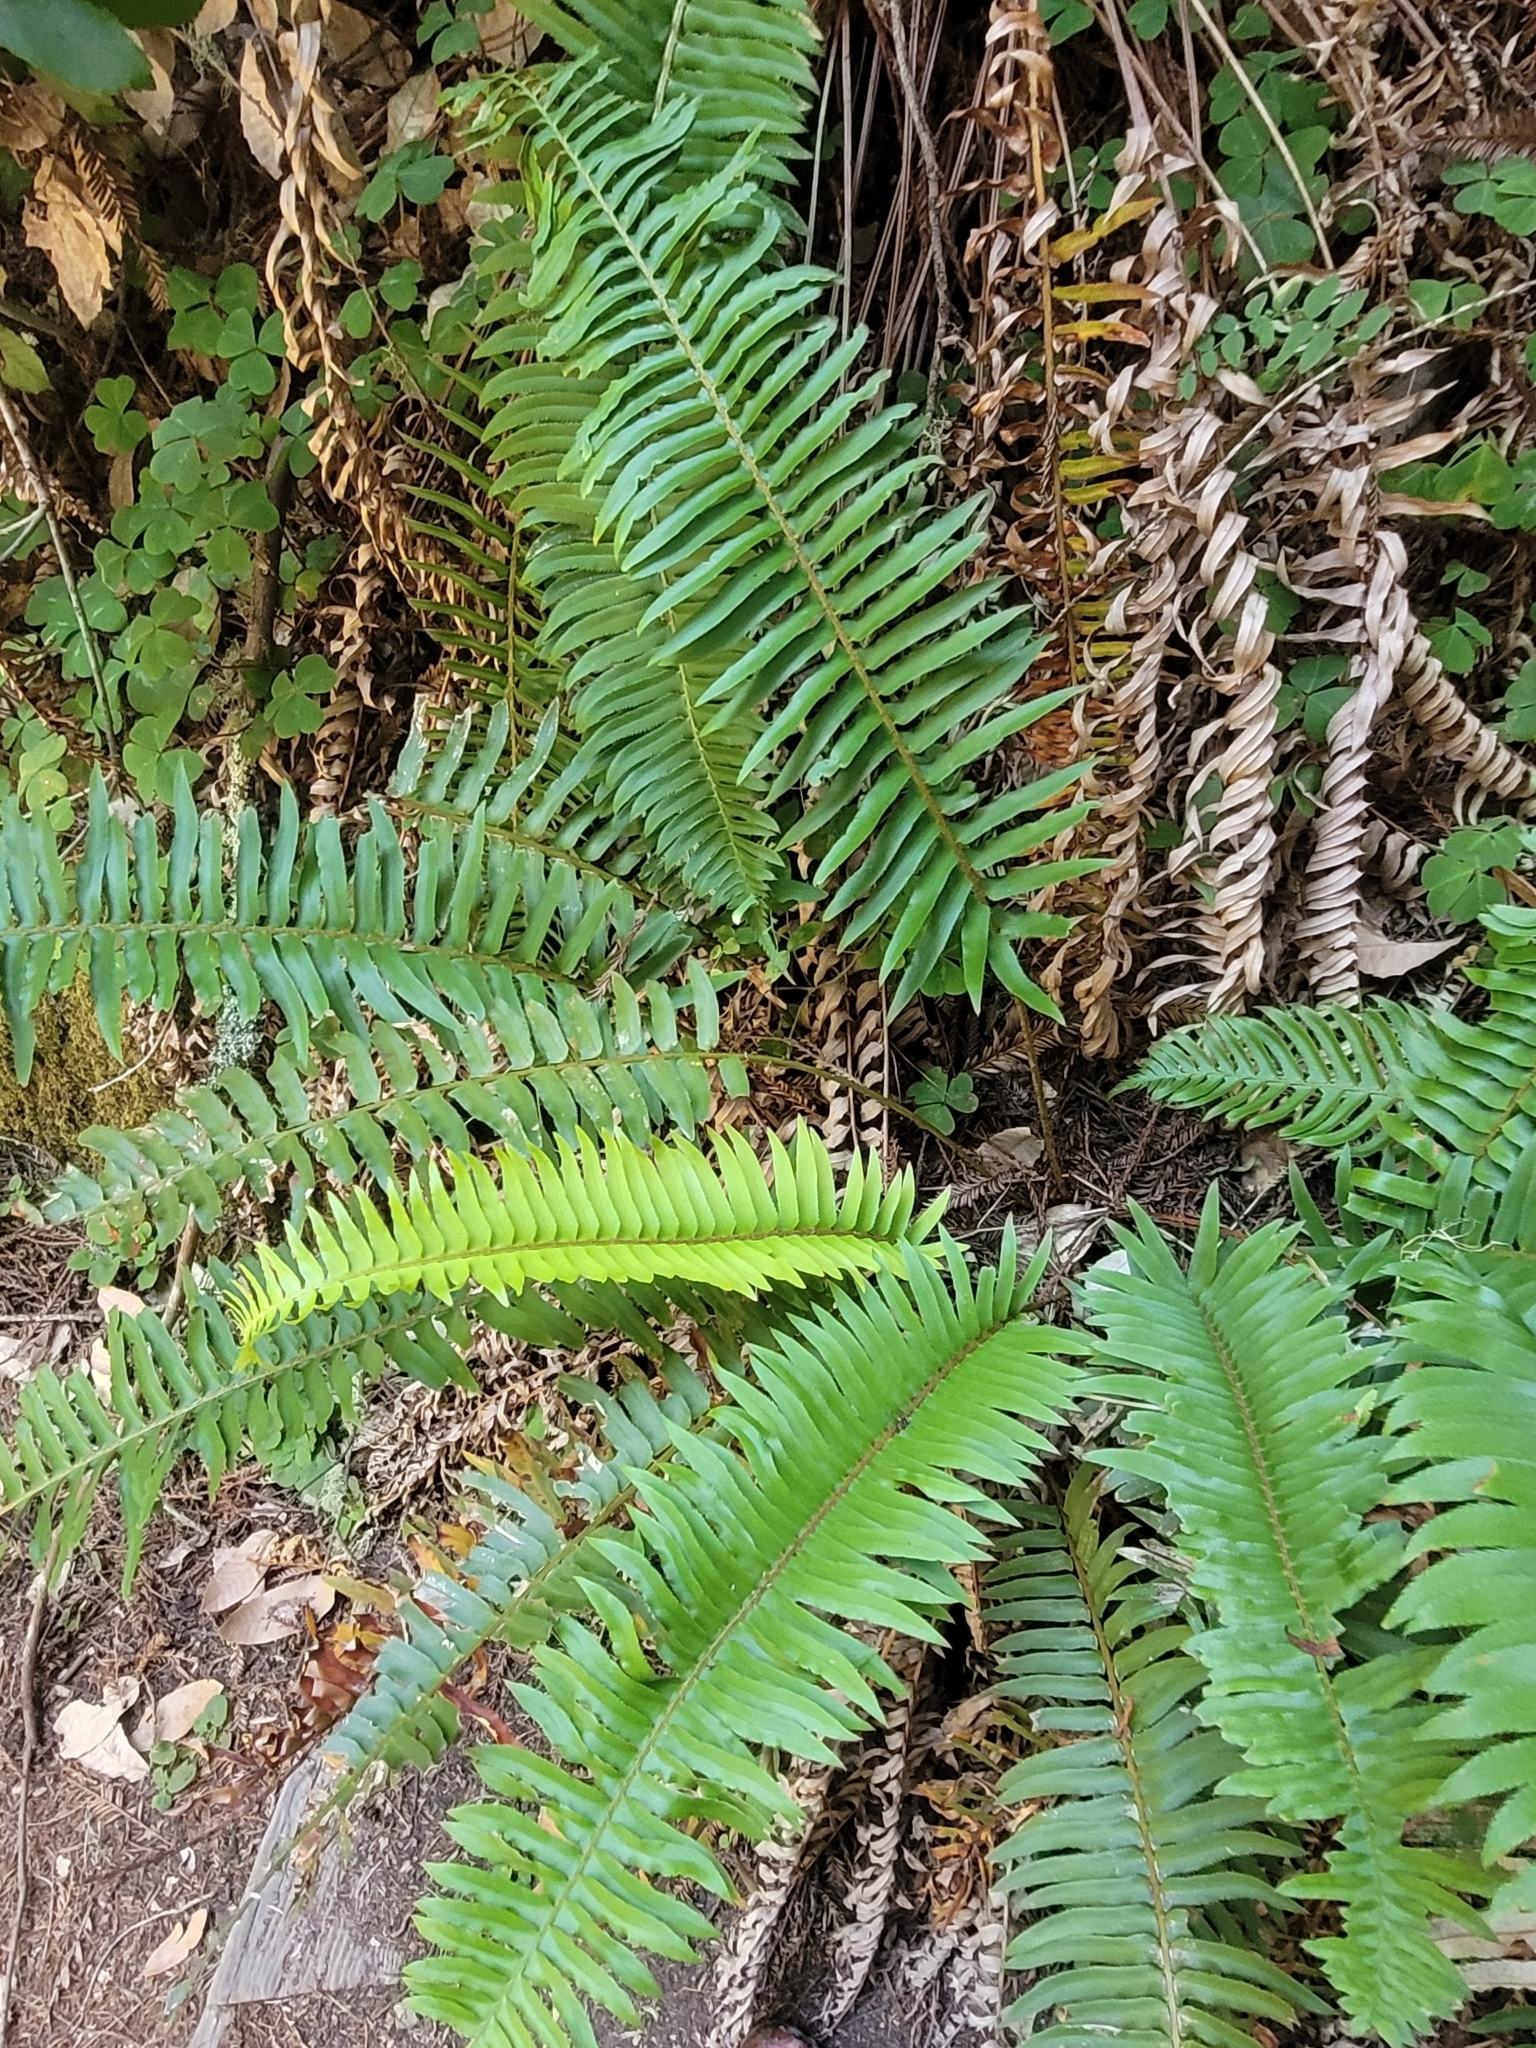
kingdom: Plantae
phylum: Tracheophyta
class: Polypodiopsida
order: Polypodiales
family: Dryopteridaceae
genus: Polystichum
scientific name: Polystichum munitum
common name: Western sword-fern
